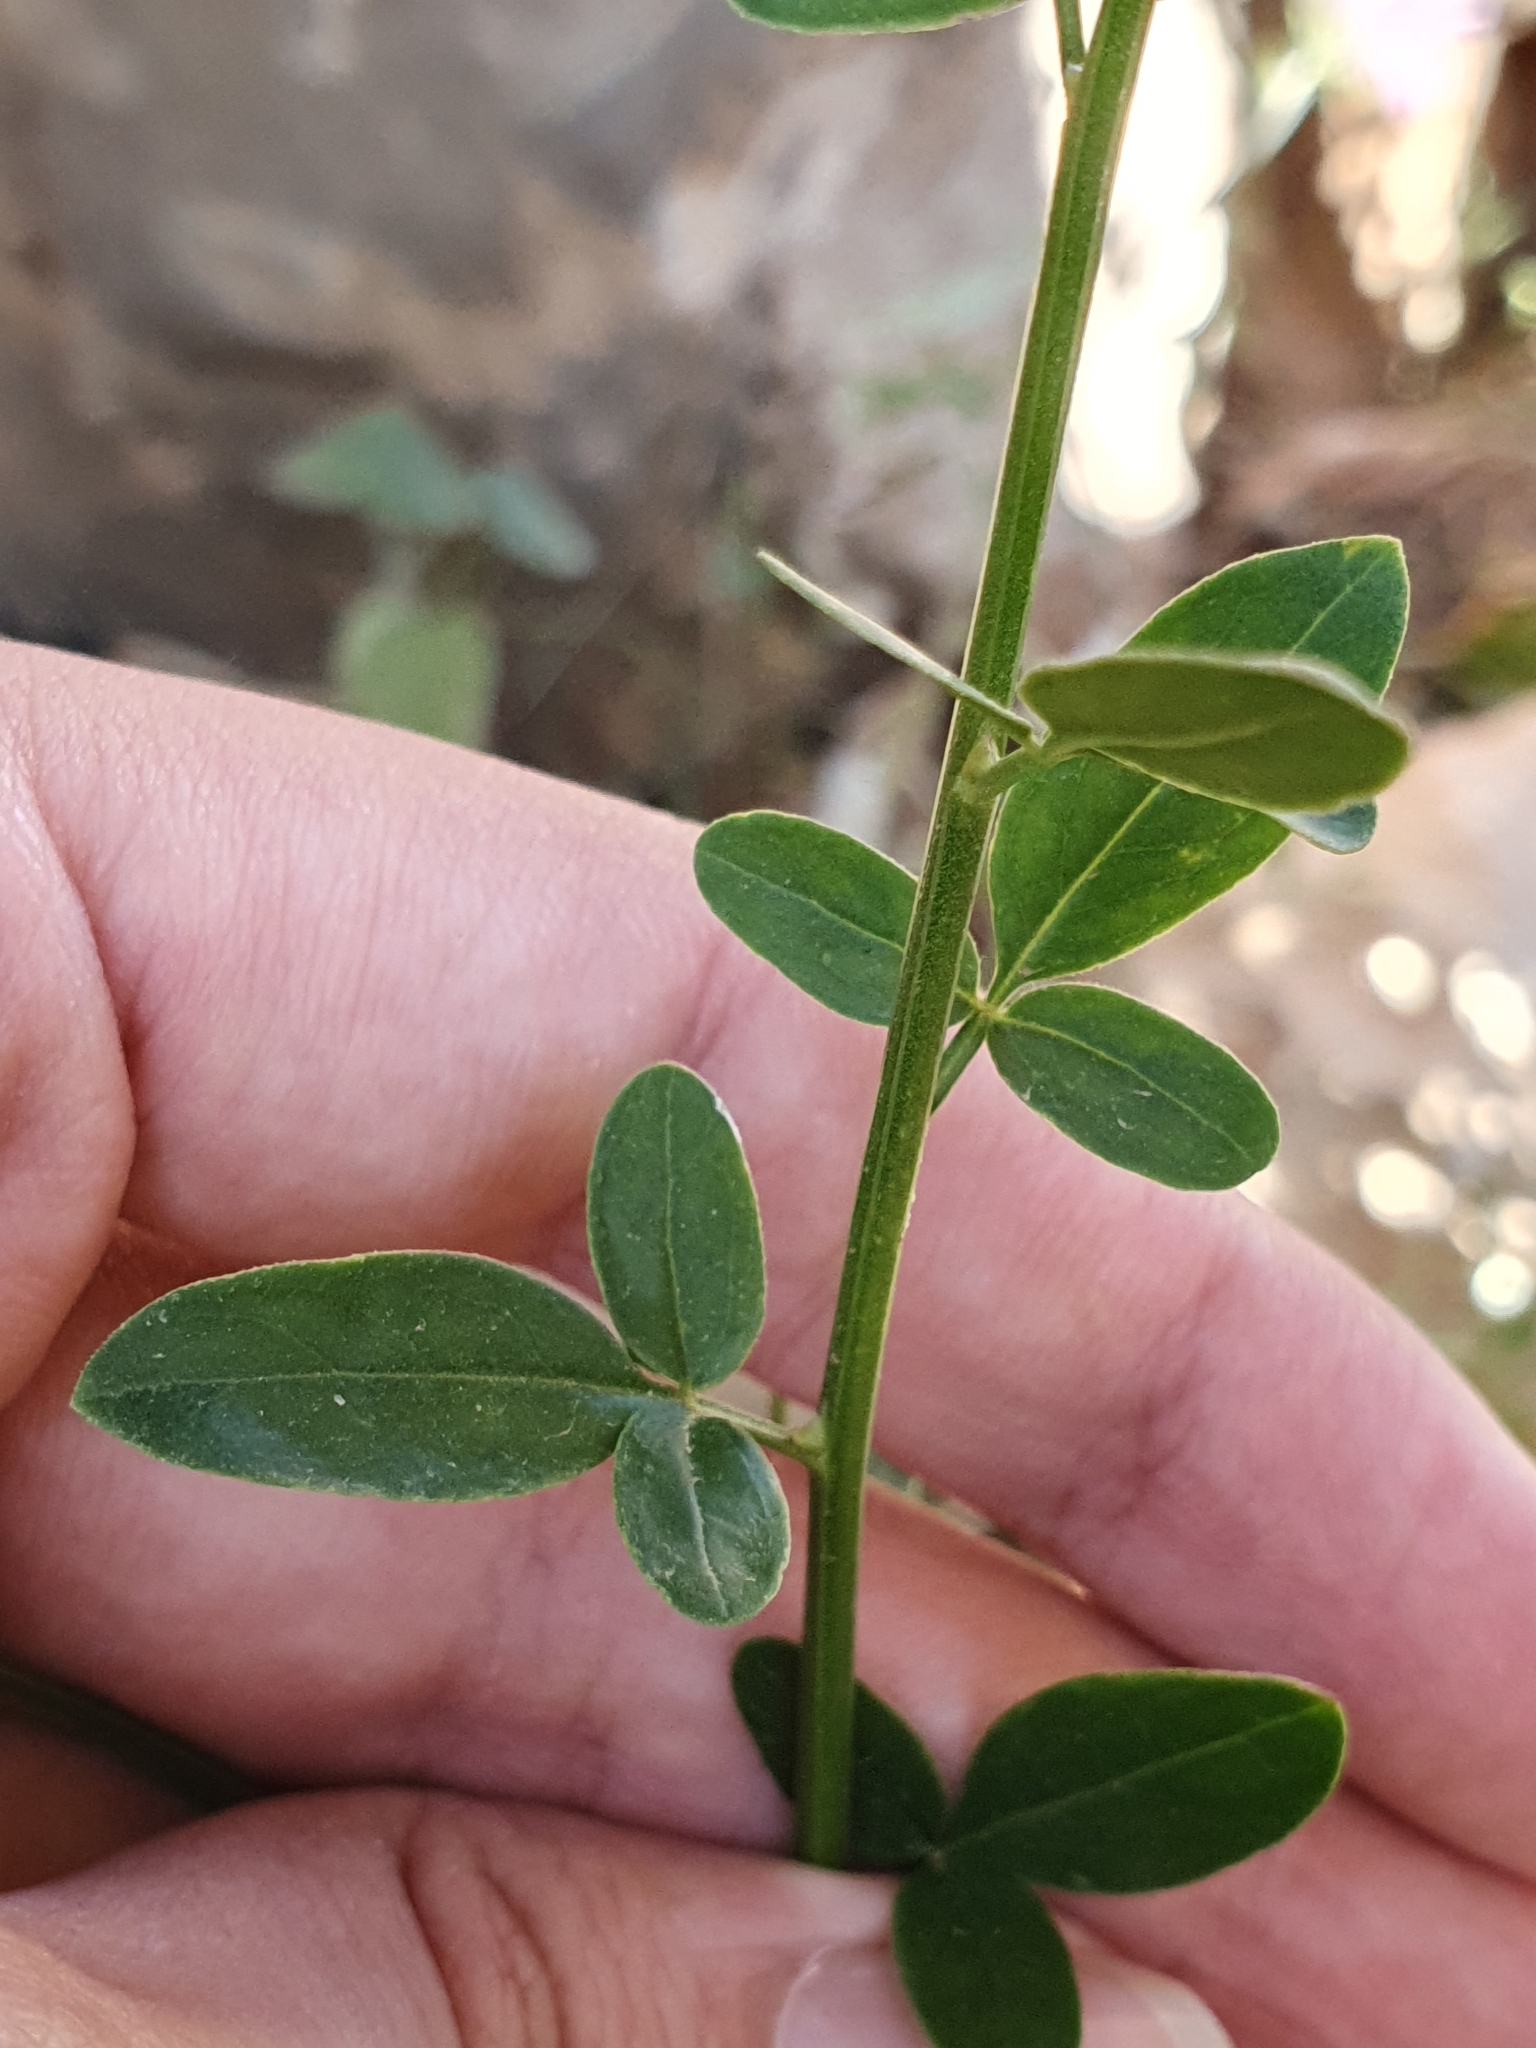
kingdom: Plantae
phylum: Tracheophyta
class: Magnoliopsida
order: Lamiales
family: Oleaceae
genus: Chrysojasminum
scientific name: Chrysojasminum fruticans
